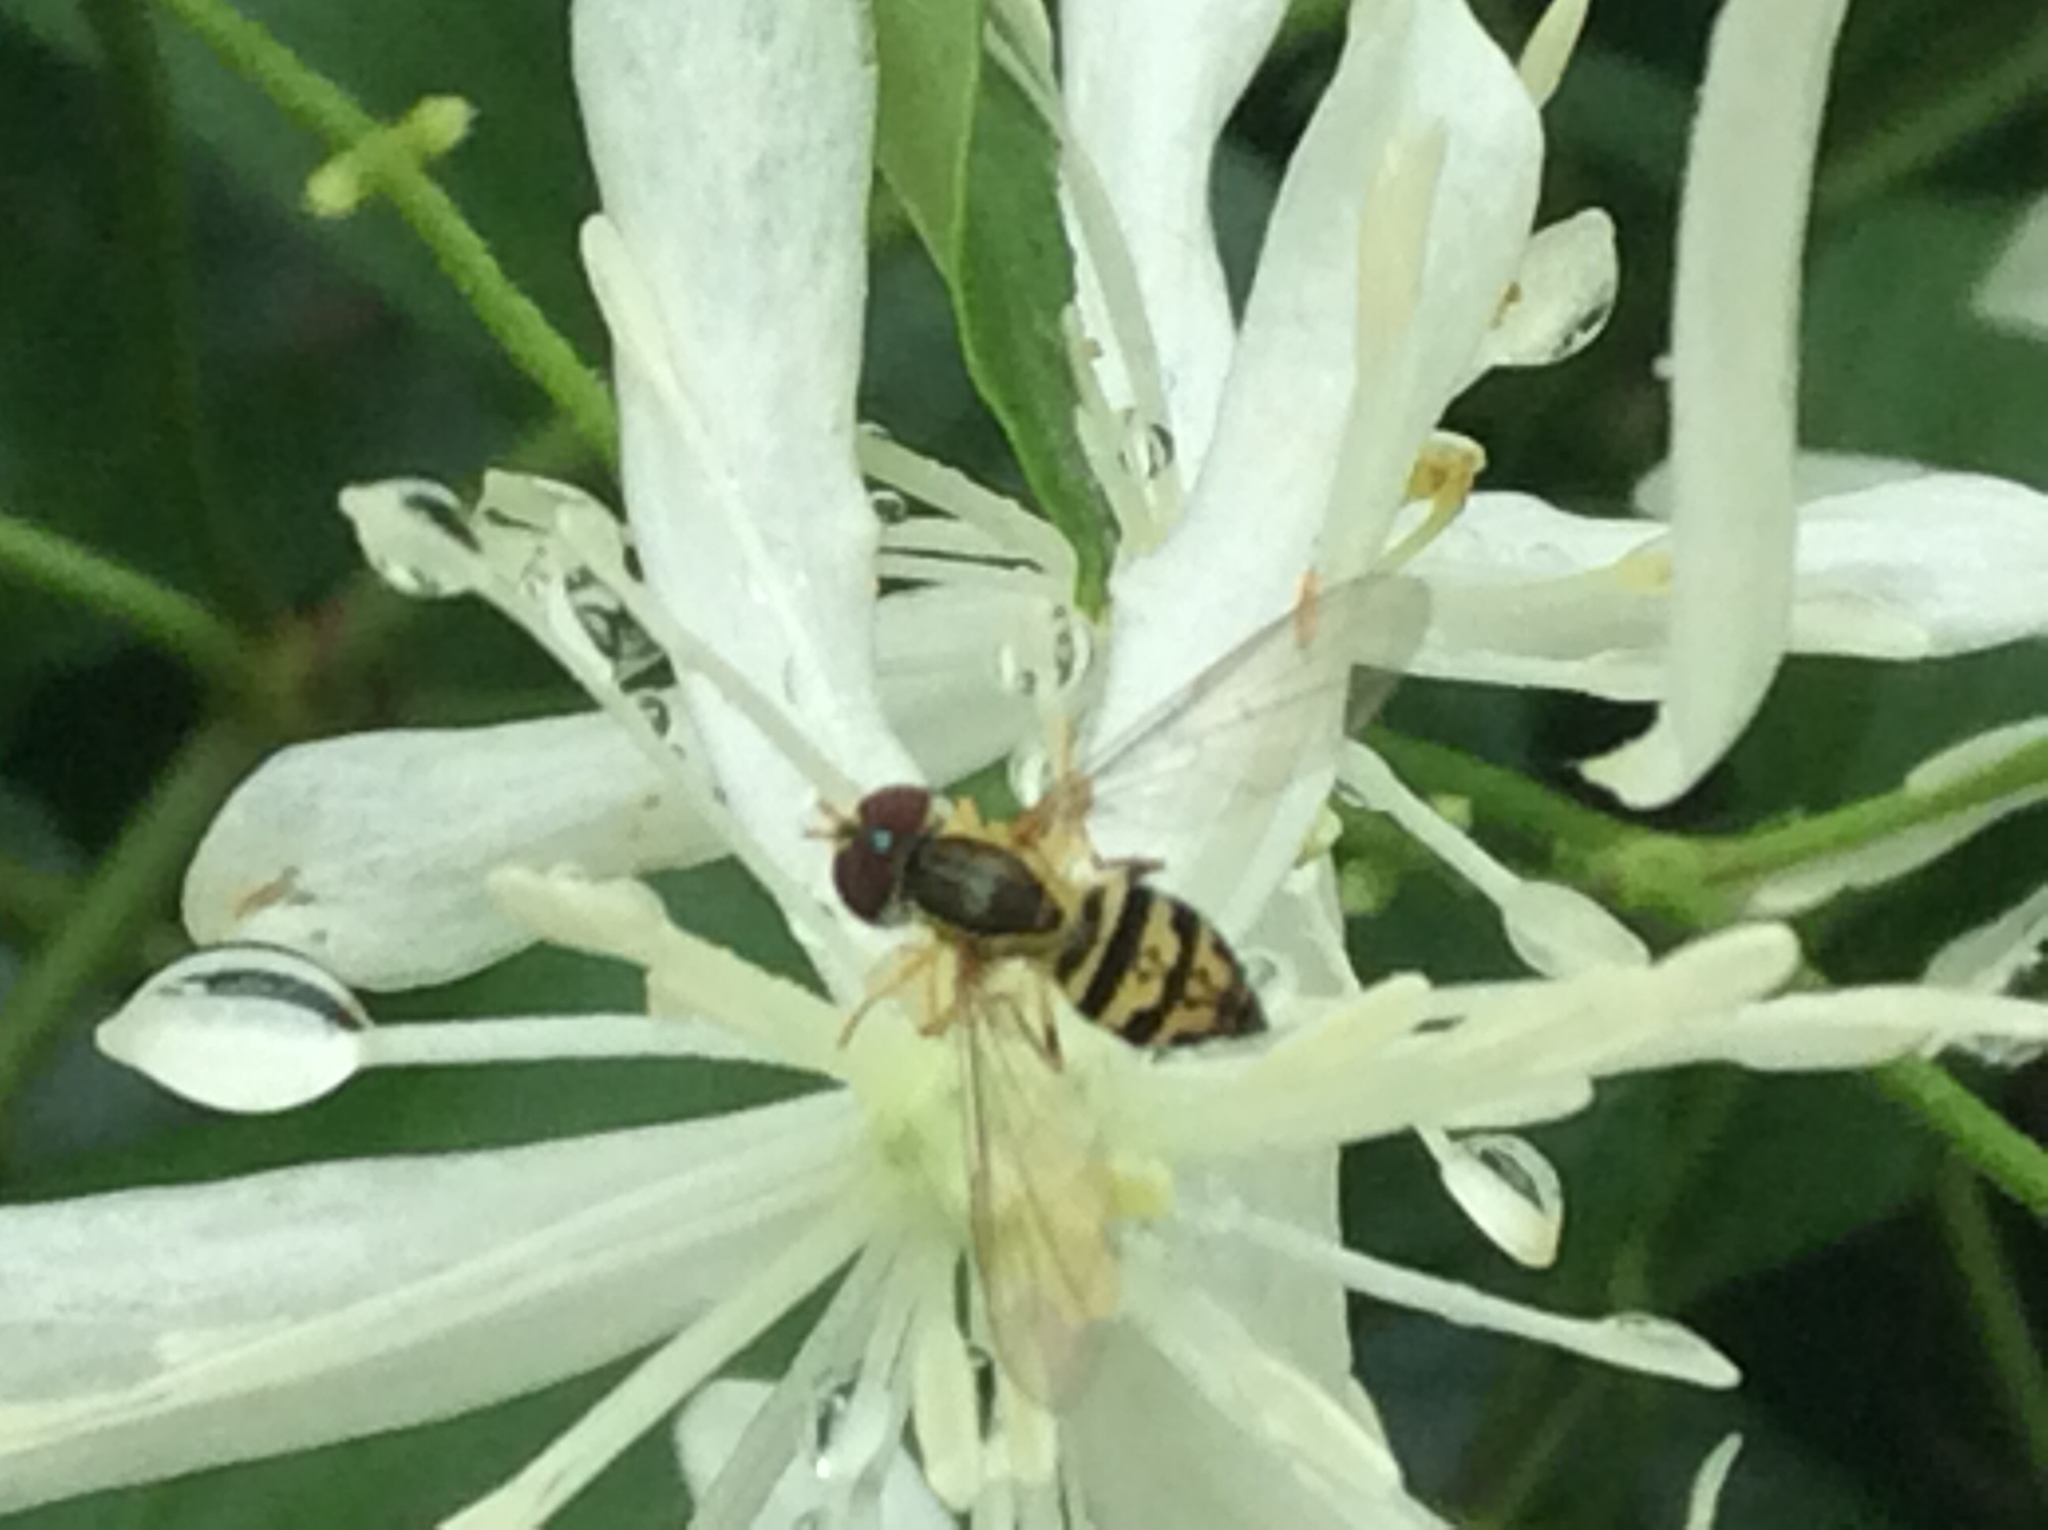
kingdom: Animalia
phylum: Arthropoda
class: Insecta
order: Diptera
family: Syrphidae
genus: Toxomerus
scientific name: Toxomerus geminatus
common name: Eastern calligrapher
